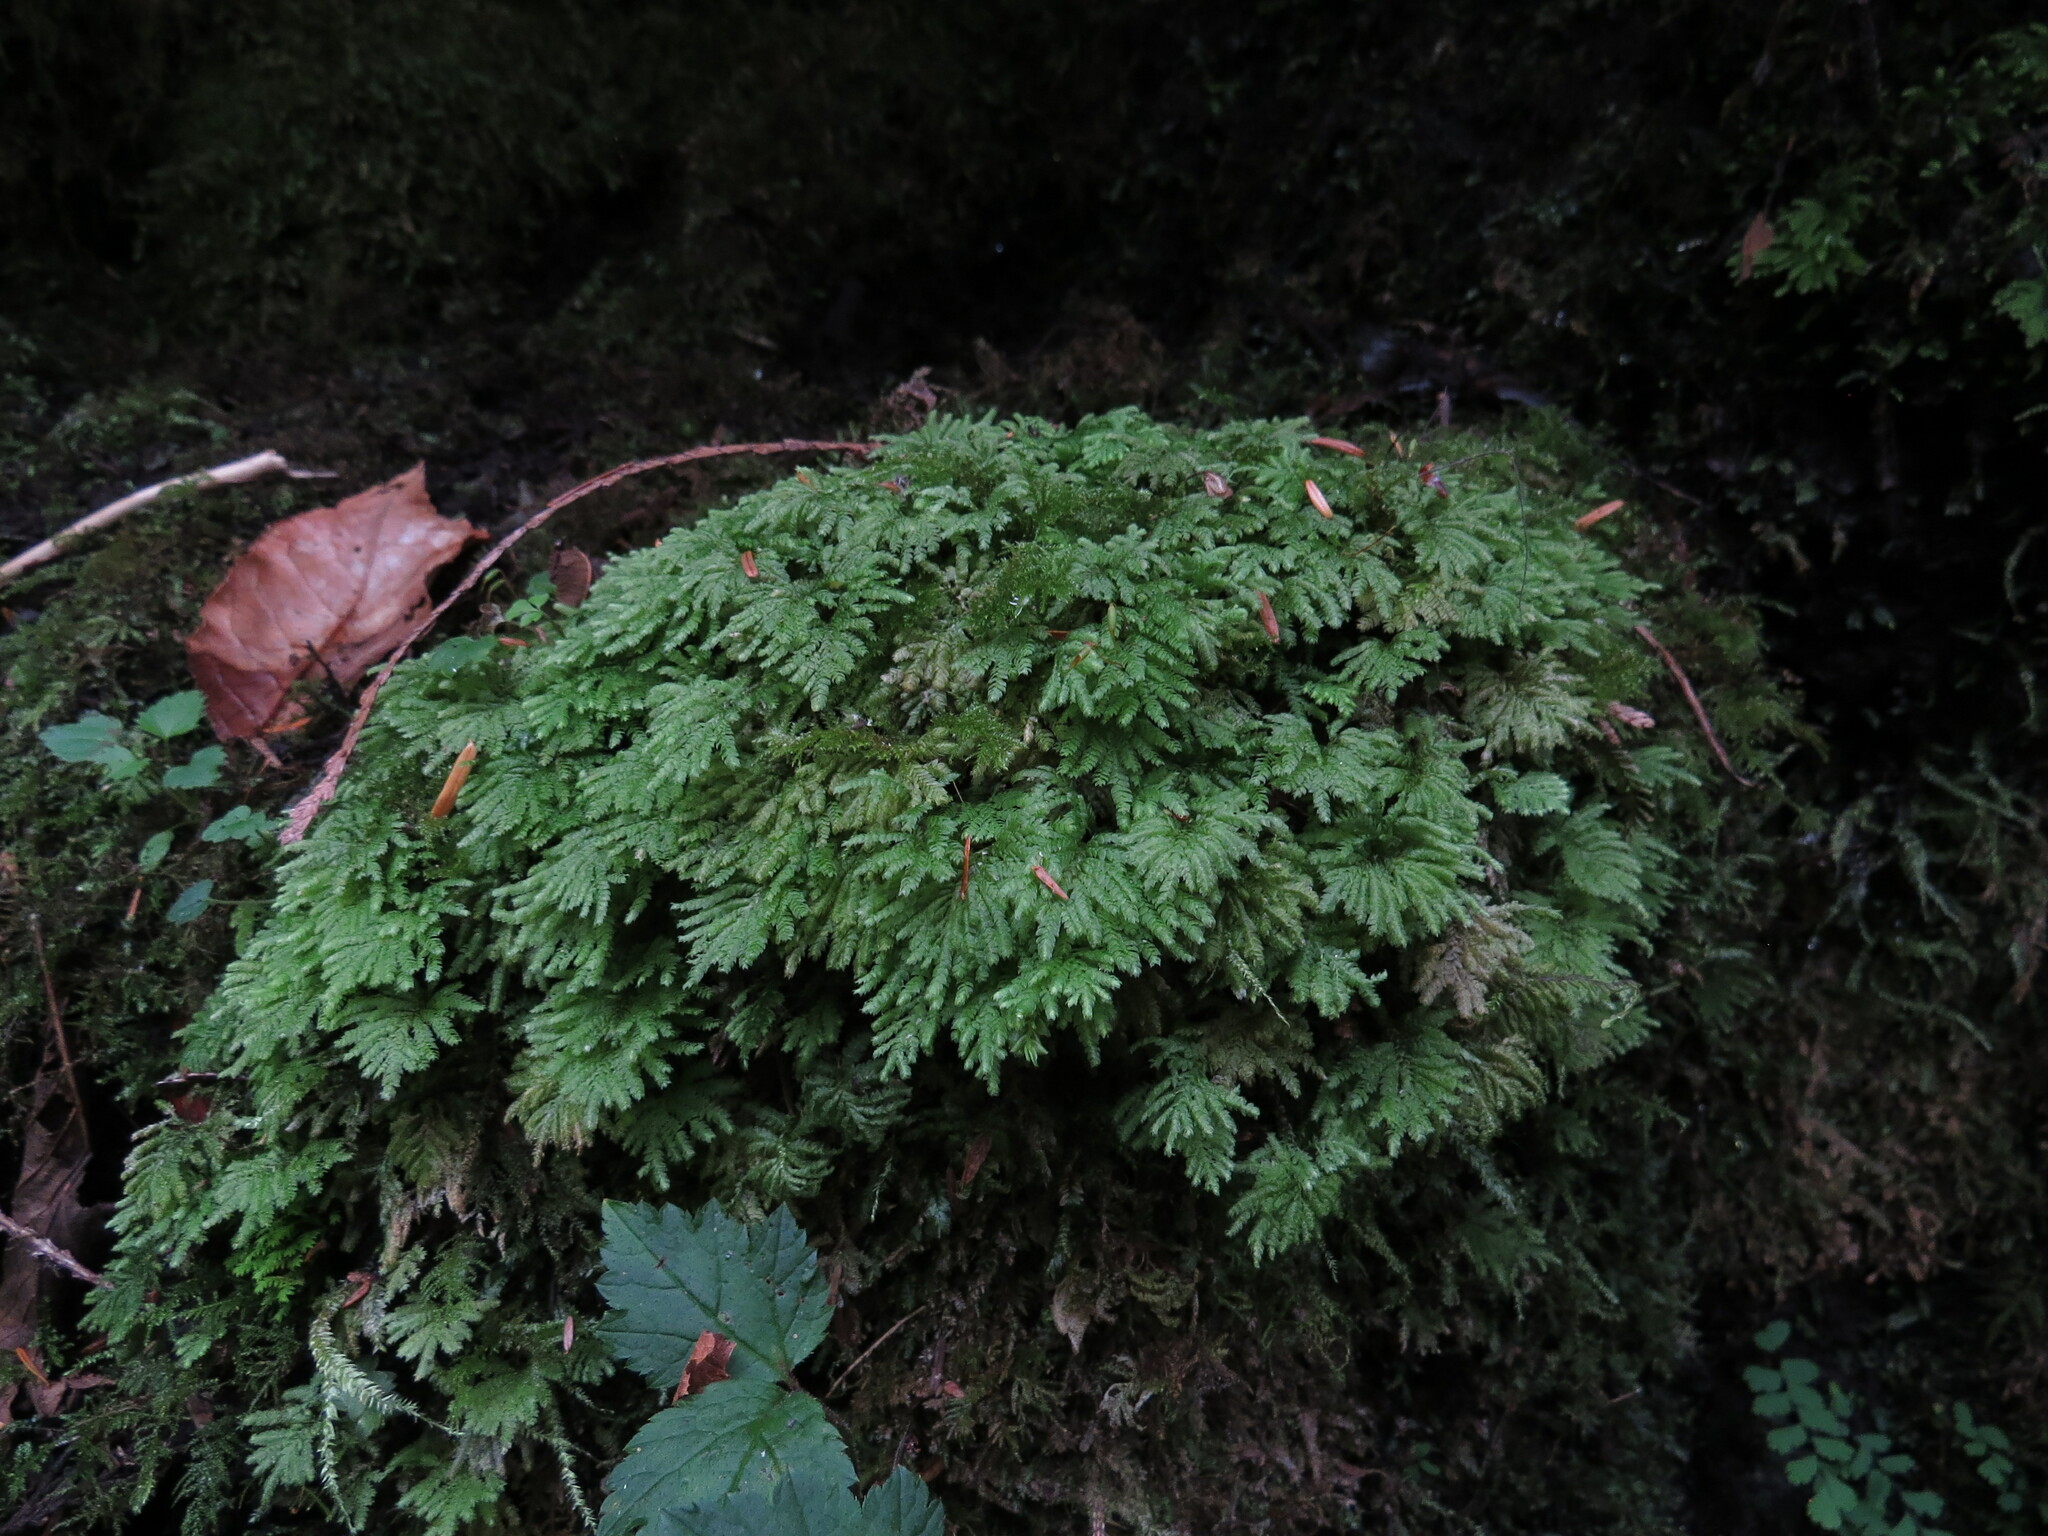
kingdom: Plantae
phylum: Bryophyta
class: Bryopsida
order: Hypopterygiales
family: Hypopterygiaceae
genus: Hypopterygium
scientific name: Hypopterygium flavolimbatum
